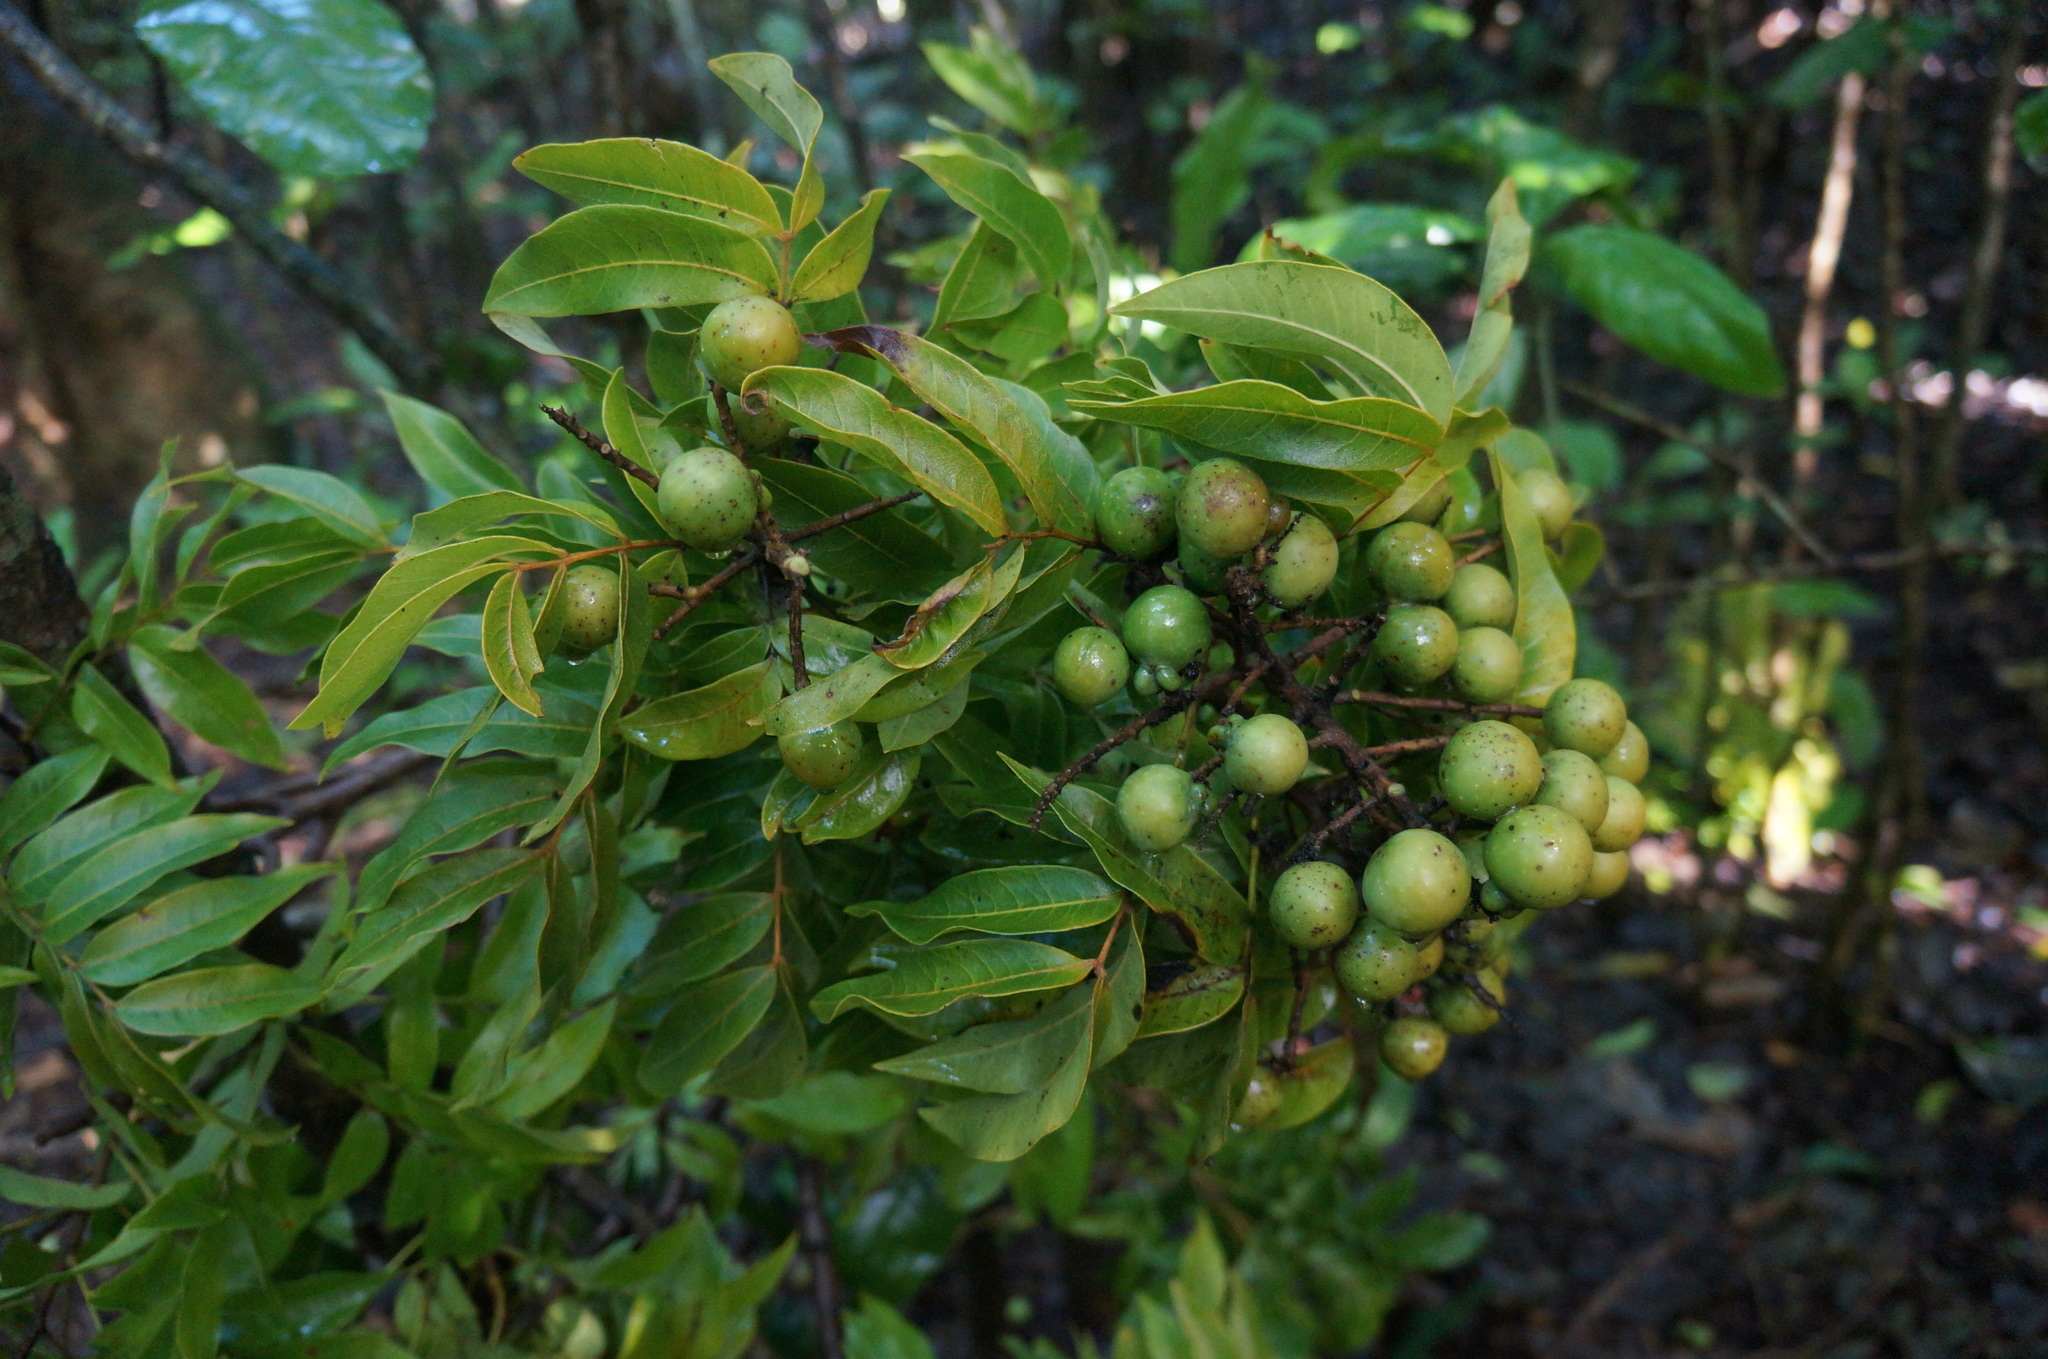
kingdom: Plantae
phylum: Tracheophyta
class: Magnoliopsida
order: Sapindales
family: Sapindaceae
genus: Sapindus
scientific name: Sapindus saponaria
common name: Wingleaf soapberry
